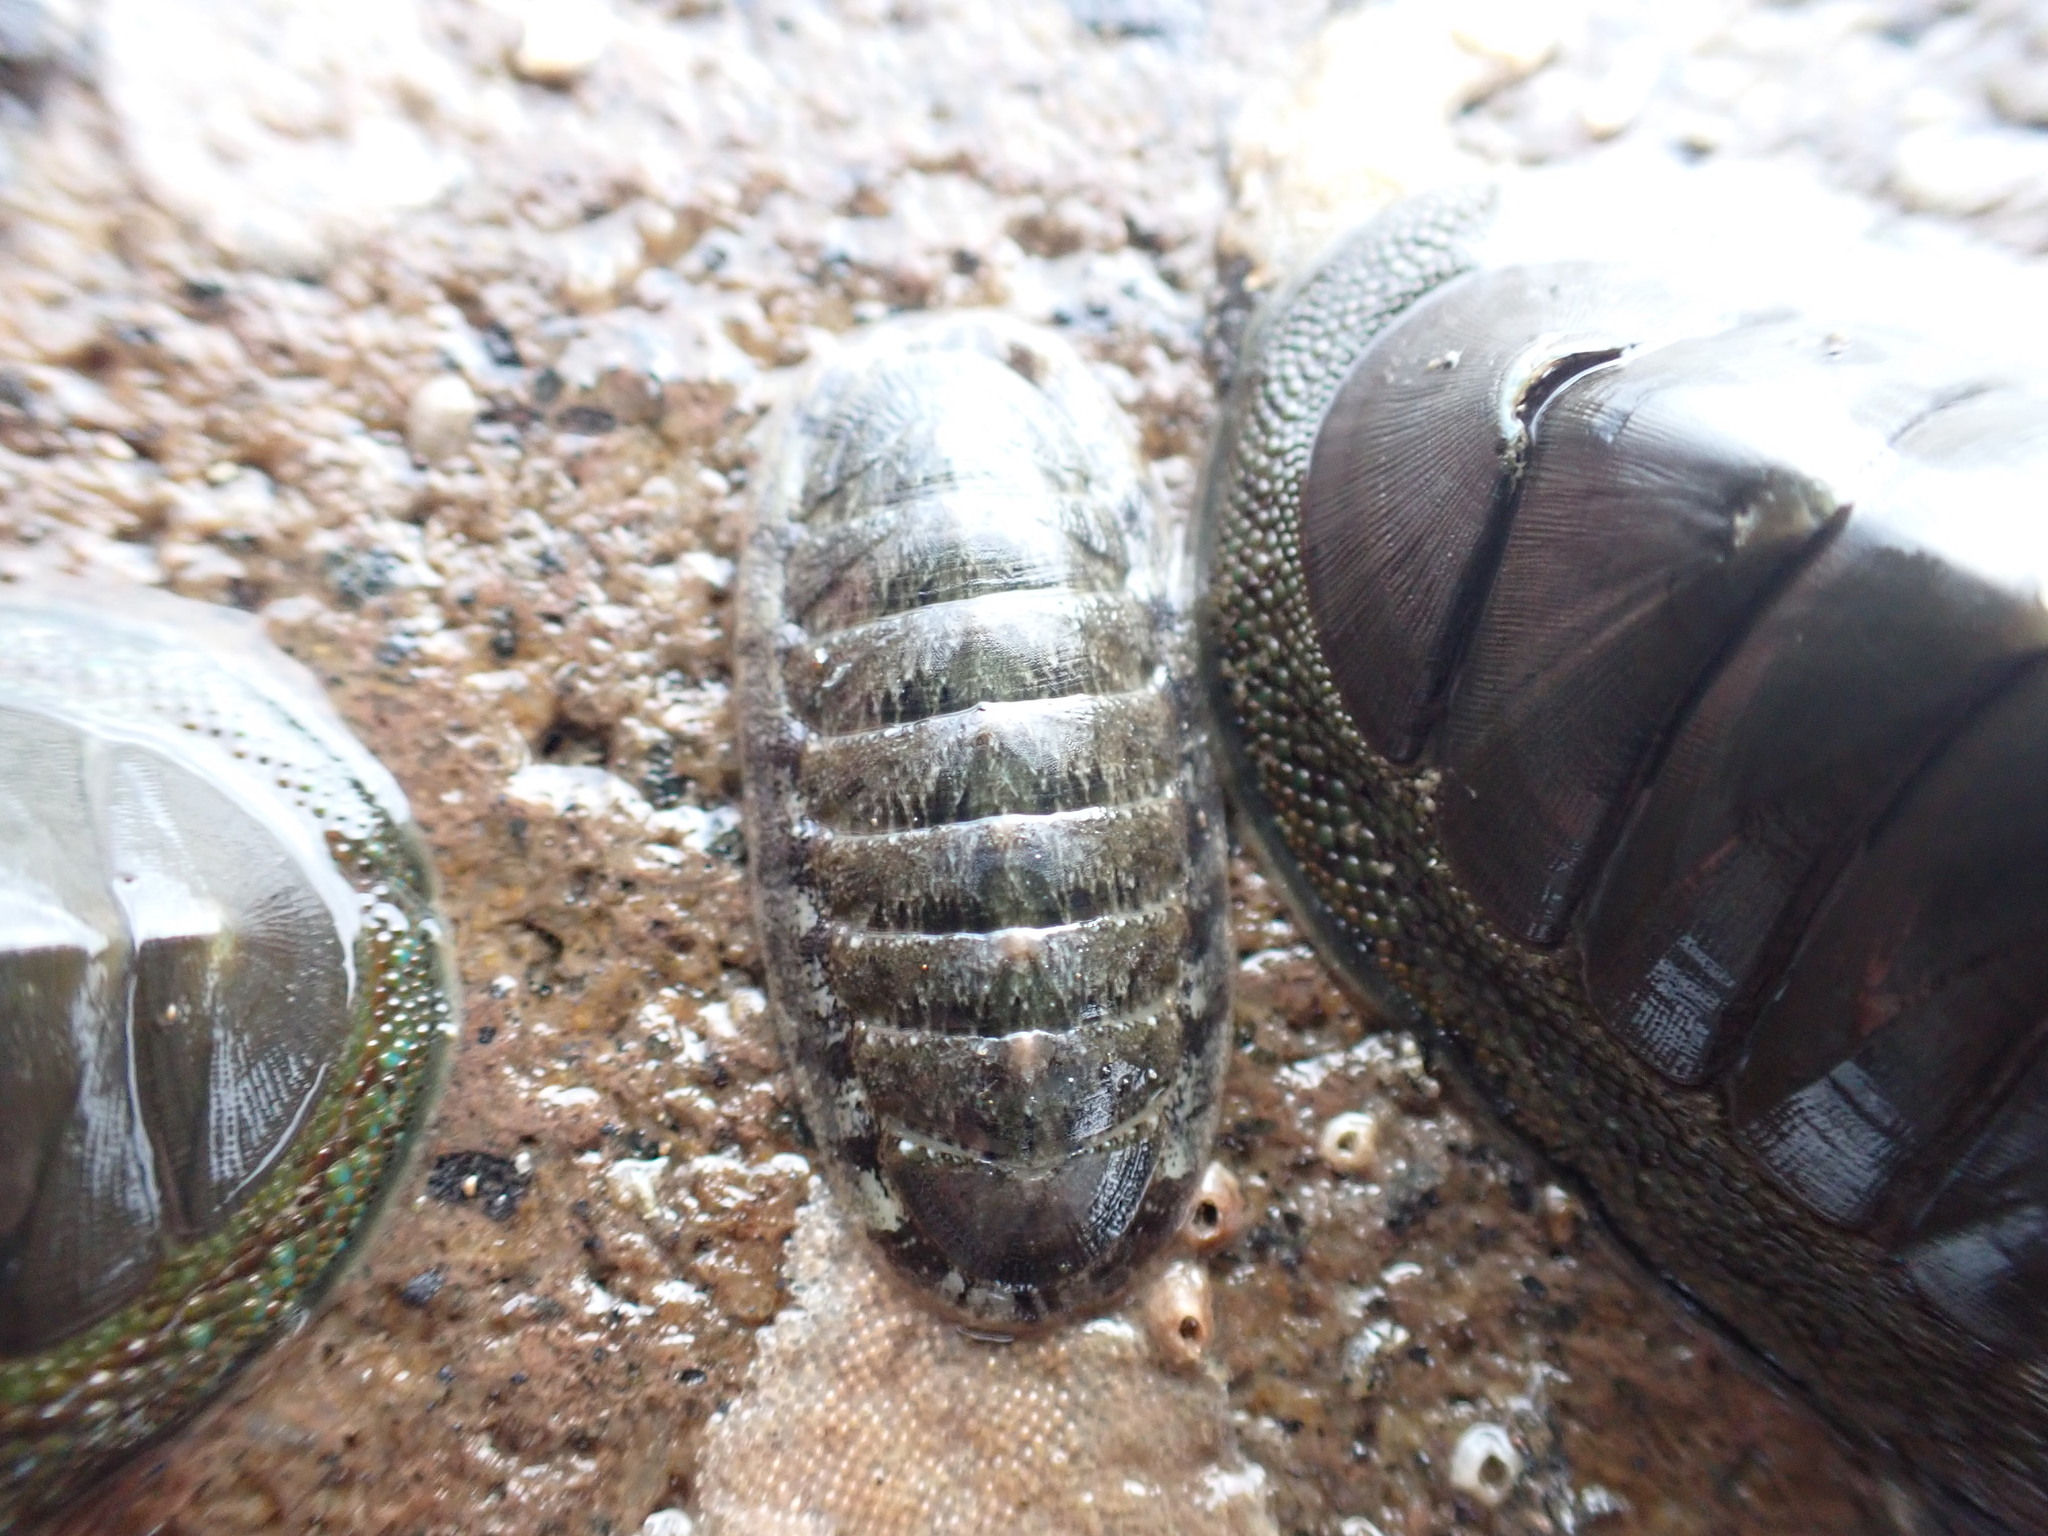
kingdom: Animalia
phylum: Mollusca
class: Polyplacophora
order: Chitonida
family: Ischnochitonidae
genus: Ischnochiton
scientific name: Ischnochiton maorianus
